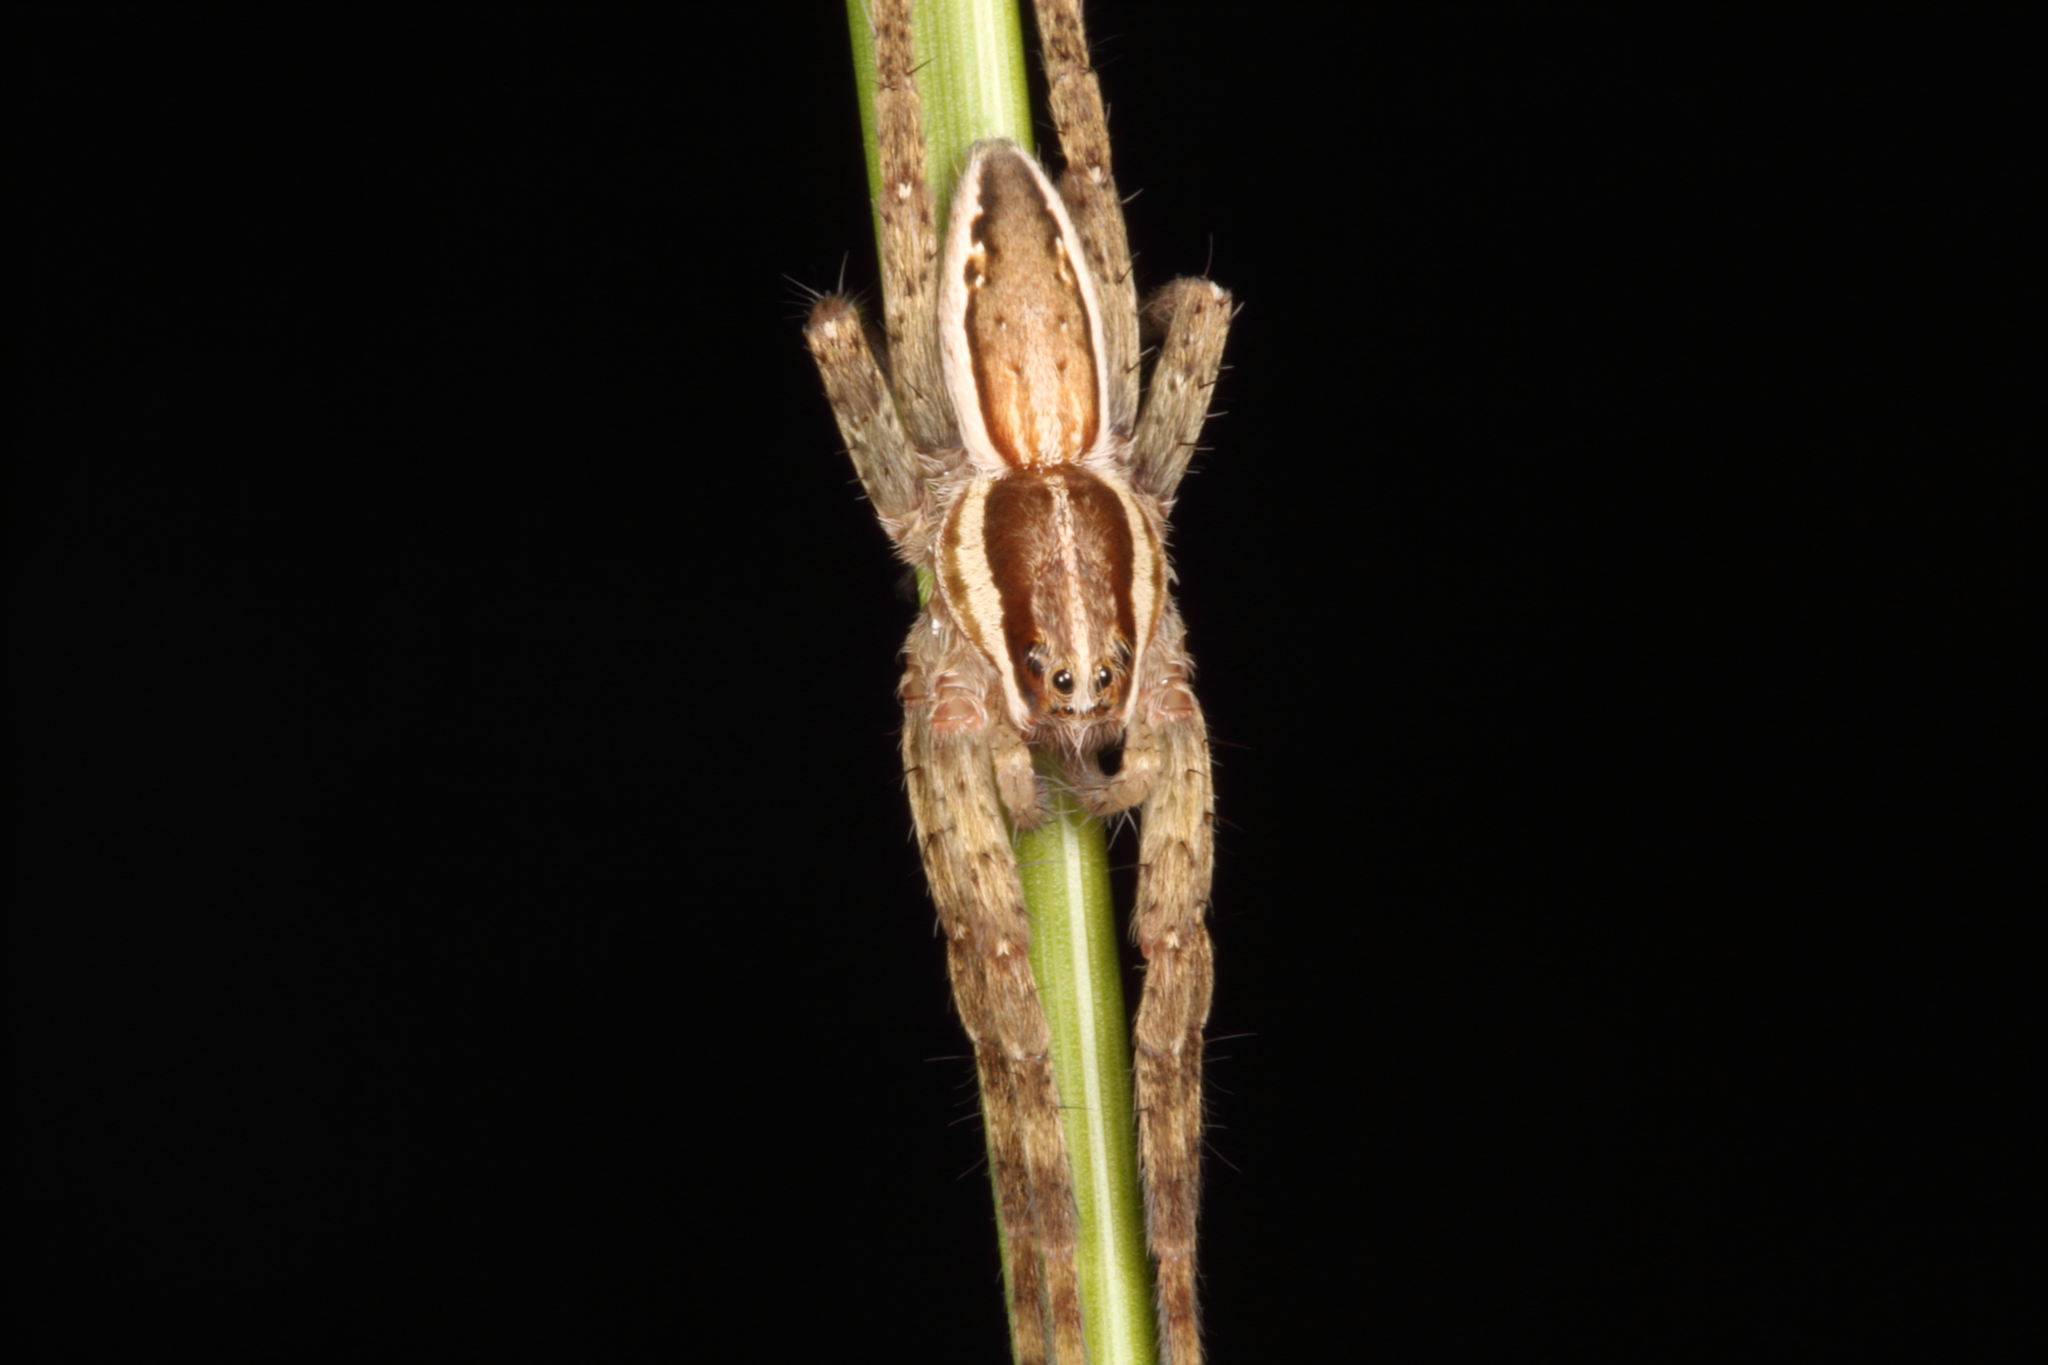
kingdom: Animalia
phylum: Arthropoda
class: Arachnida
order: Araneae
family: Pisauridae
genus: Dolomedes
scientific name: Dolomedes minor
